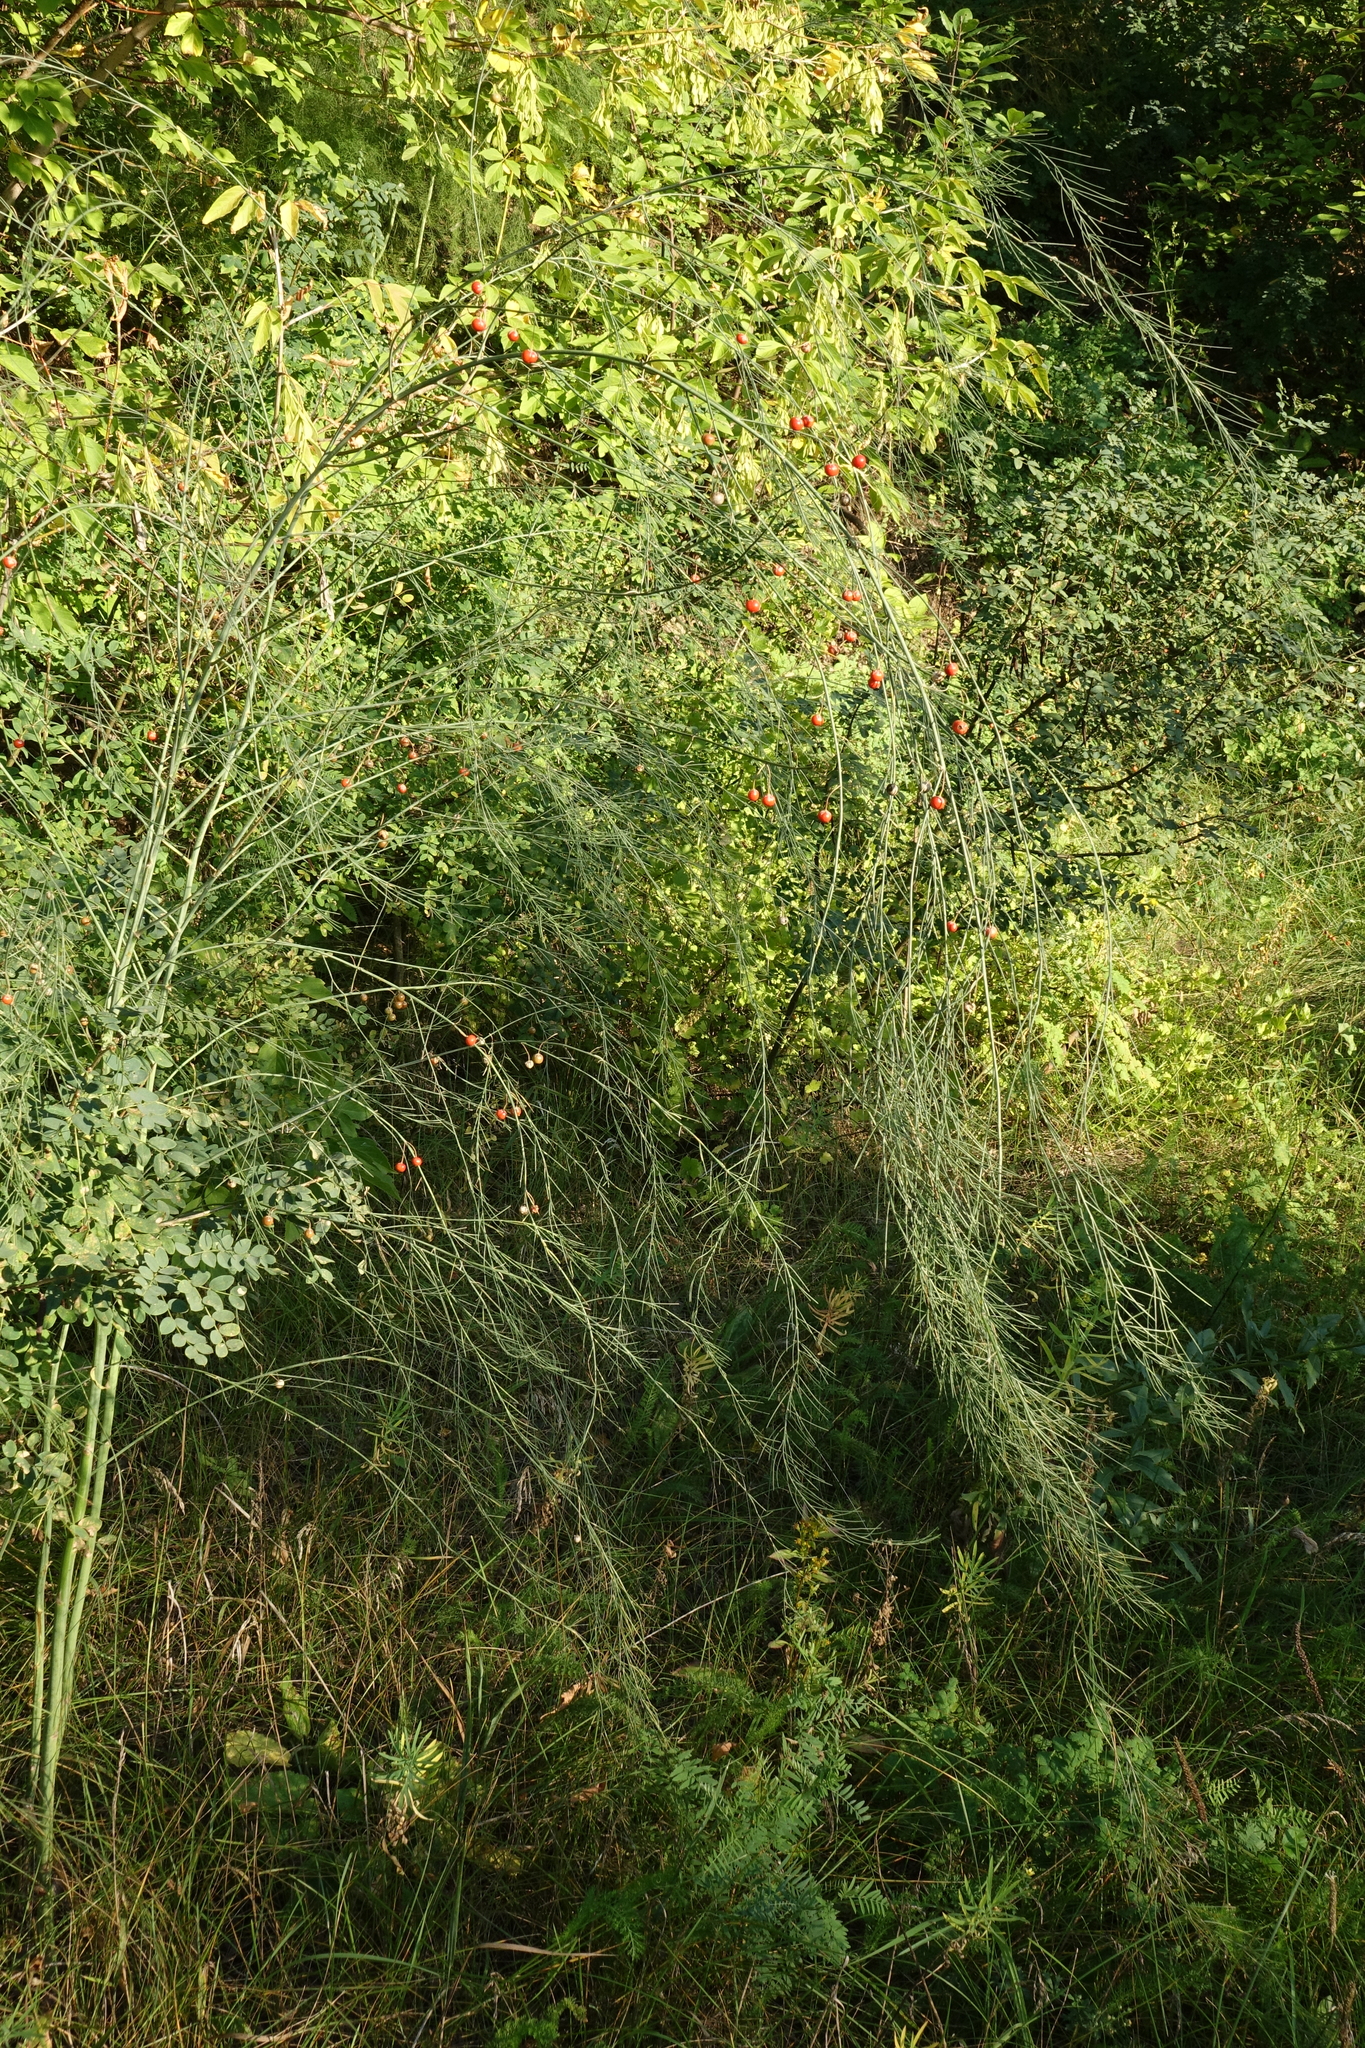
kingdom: Plantae
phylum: Tracheophyta
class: Liliopsida
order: Asparagales
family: Asparagaceae
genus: Asparagus
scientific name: Asparagus officinalis
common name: Garden asparagus
